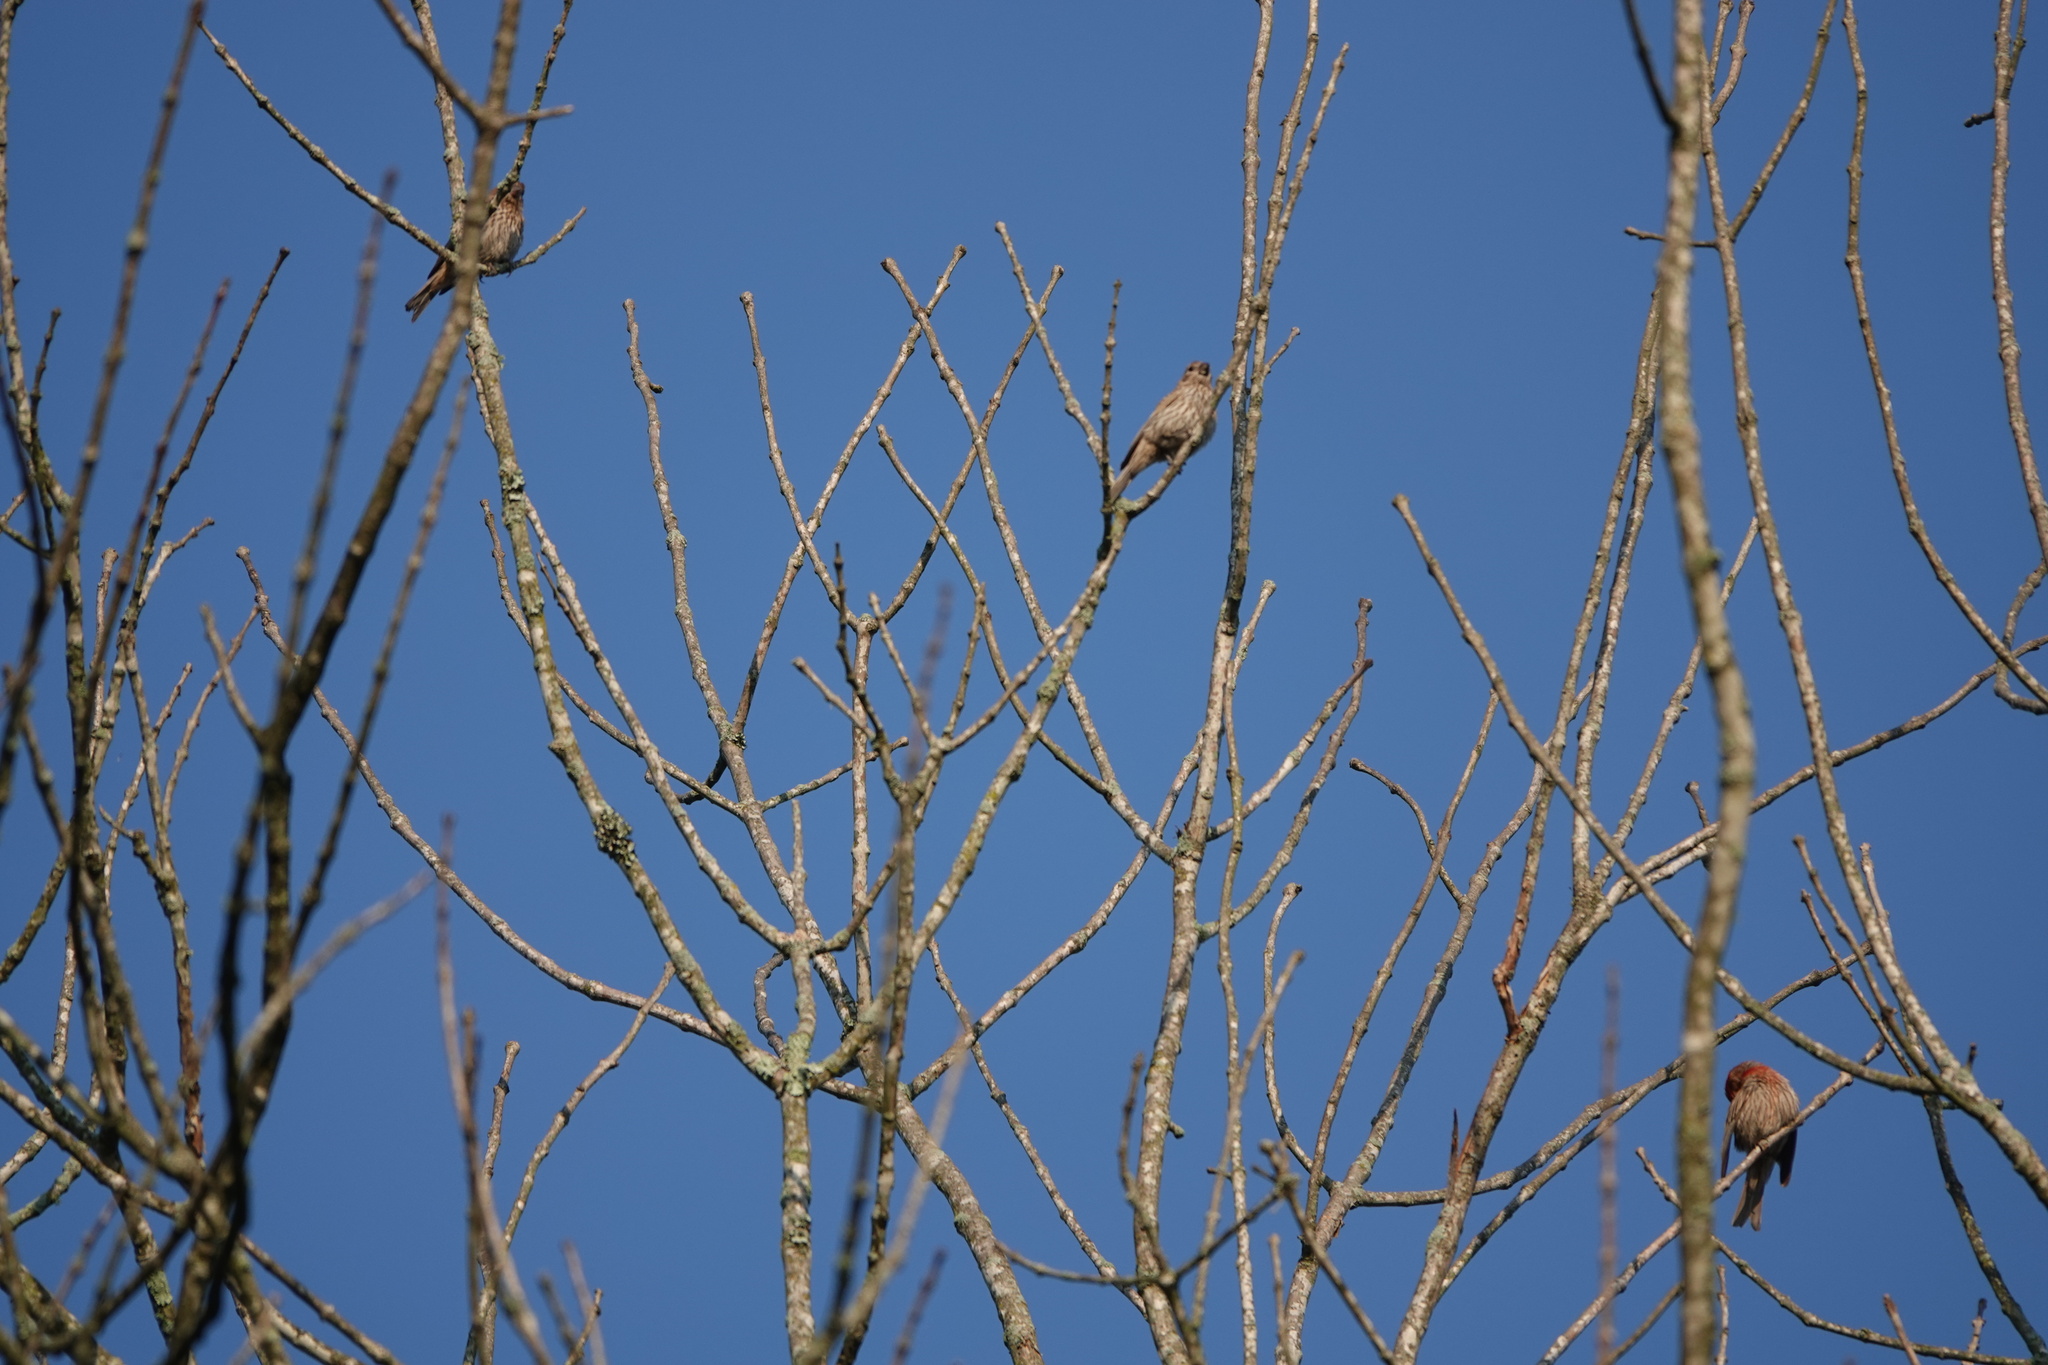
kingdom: Animalia
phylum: Chordata
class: Aves
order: Passeriformes
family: Fringillidae
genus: Haemorhous
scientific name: Haemorhous mexicanus
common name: House finch
